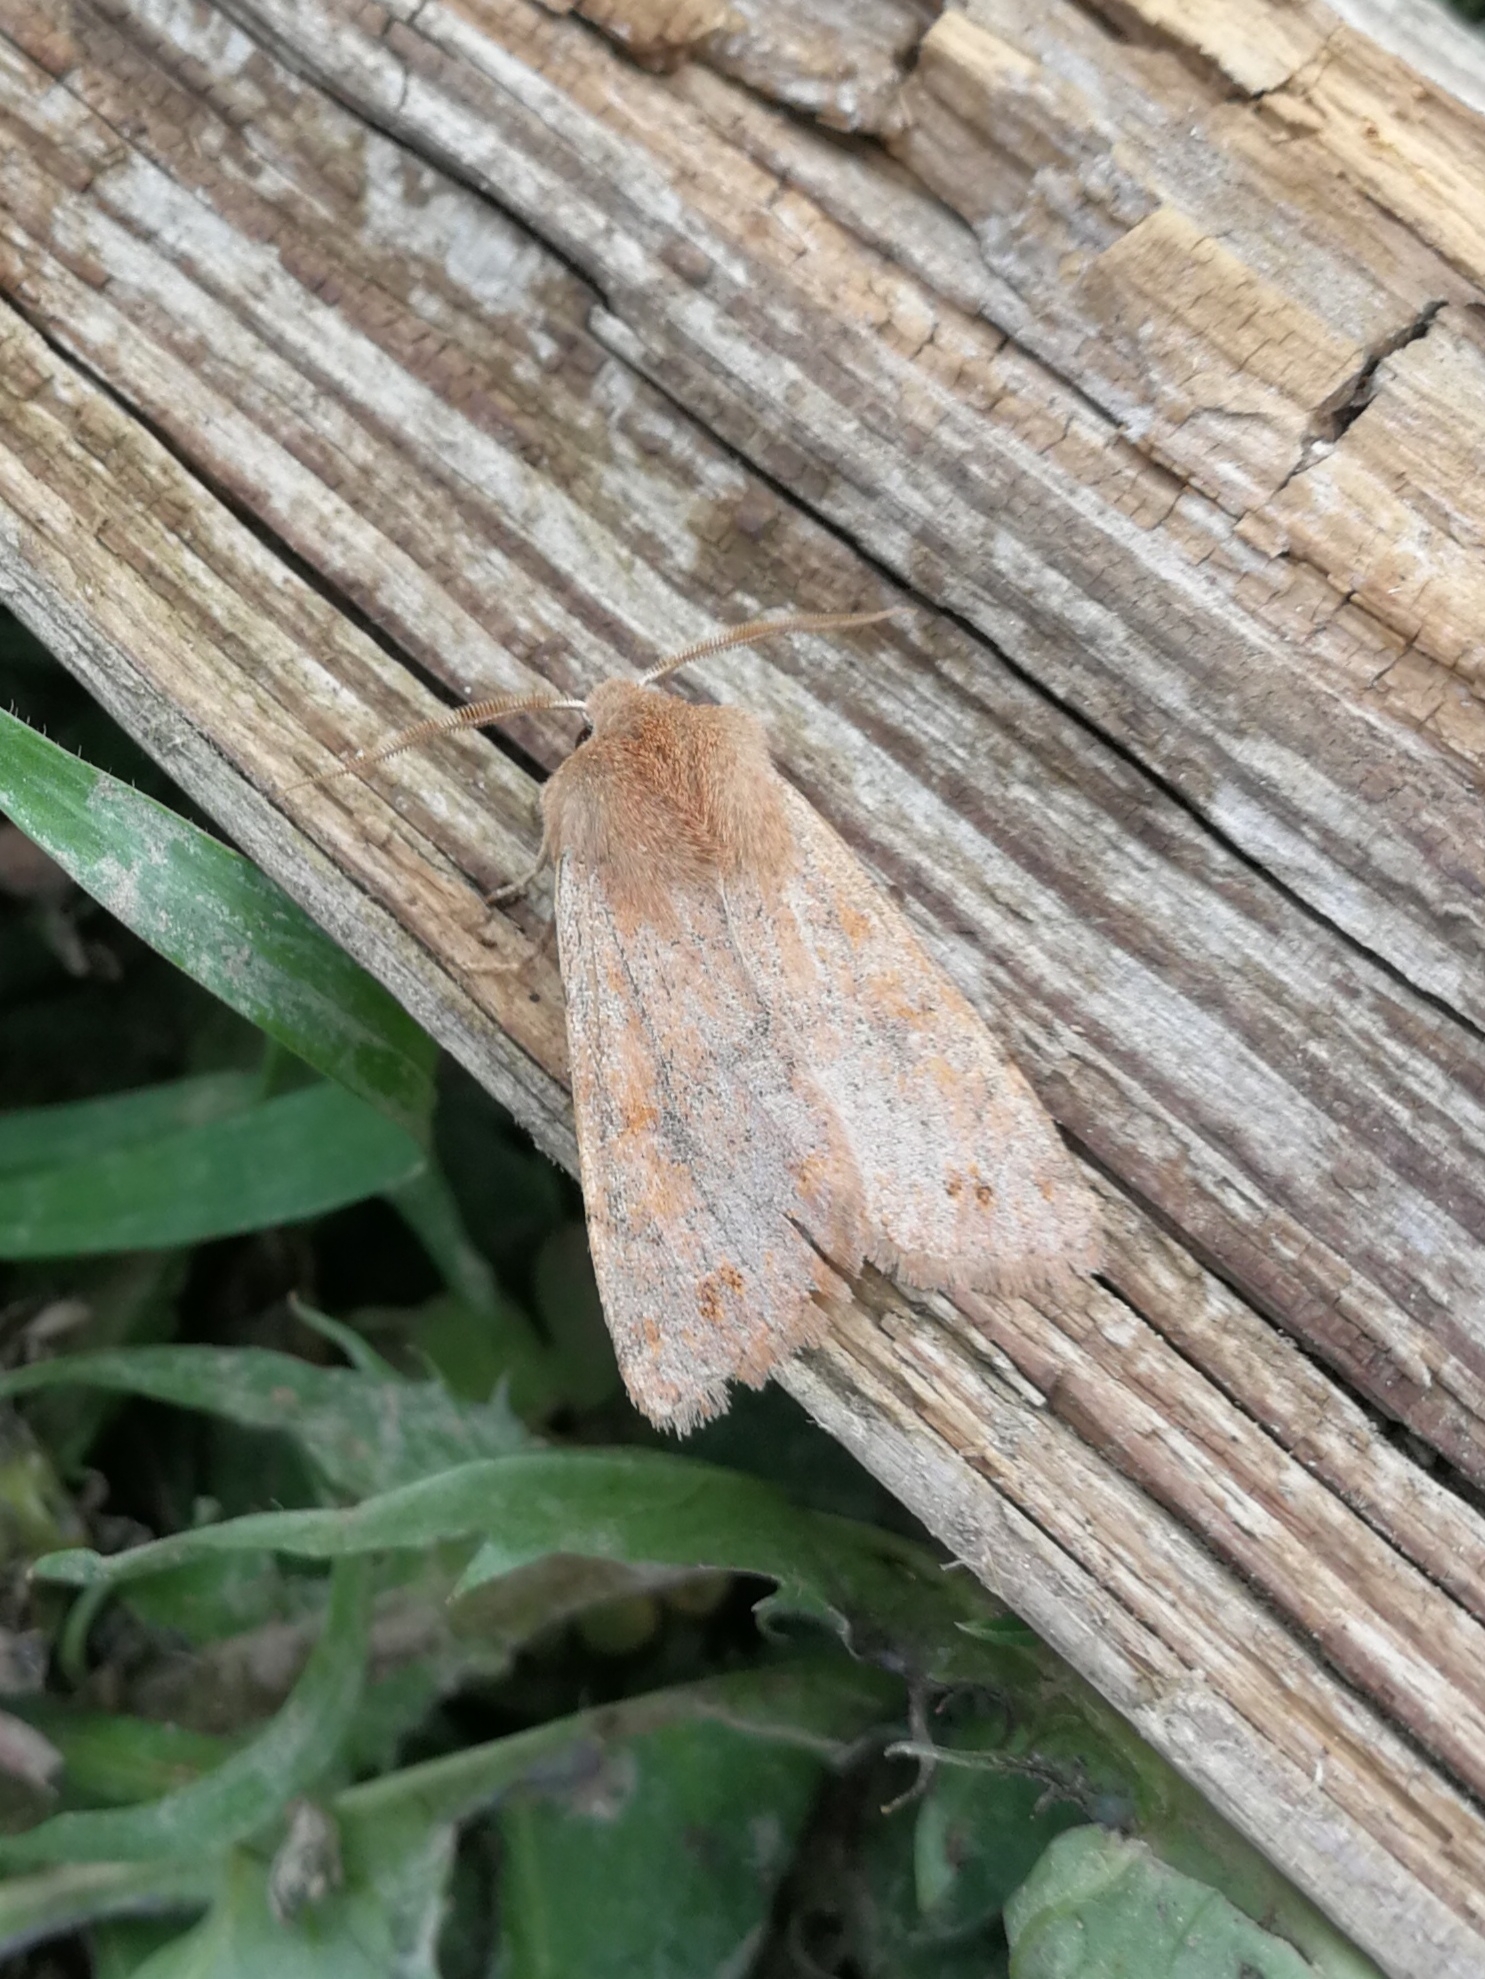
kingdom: Animalia
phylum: Arthropoda
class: Insecta
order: Lepidoptera
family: Noctuidae
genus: Anorthoa
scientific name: Anorthoa munda
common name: Twin-spotted quaker
